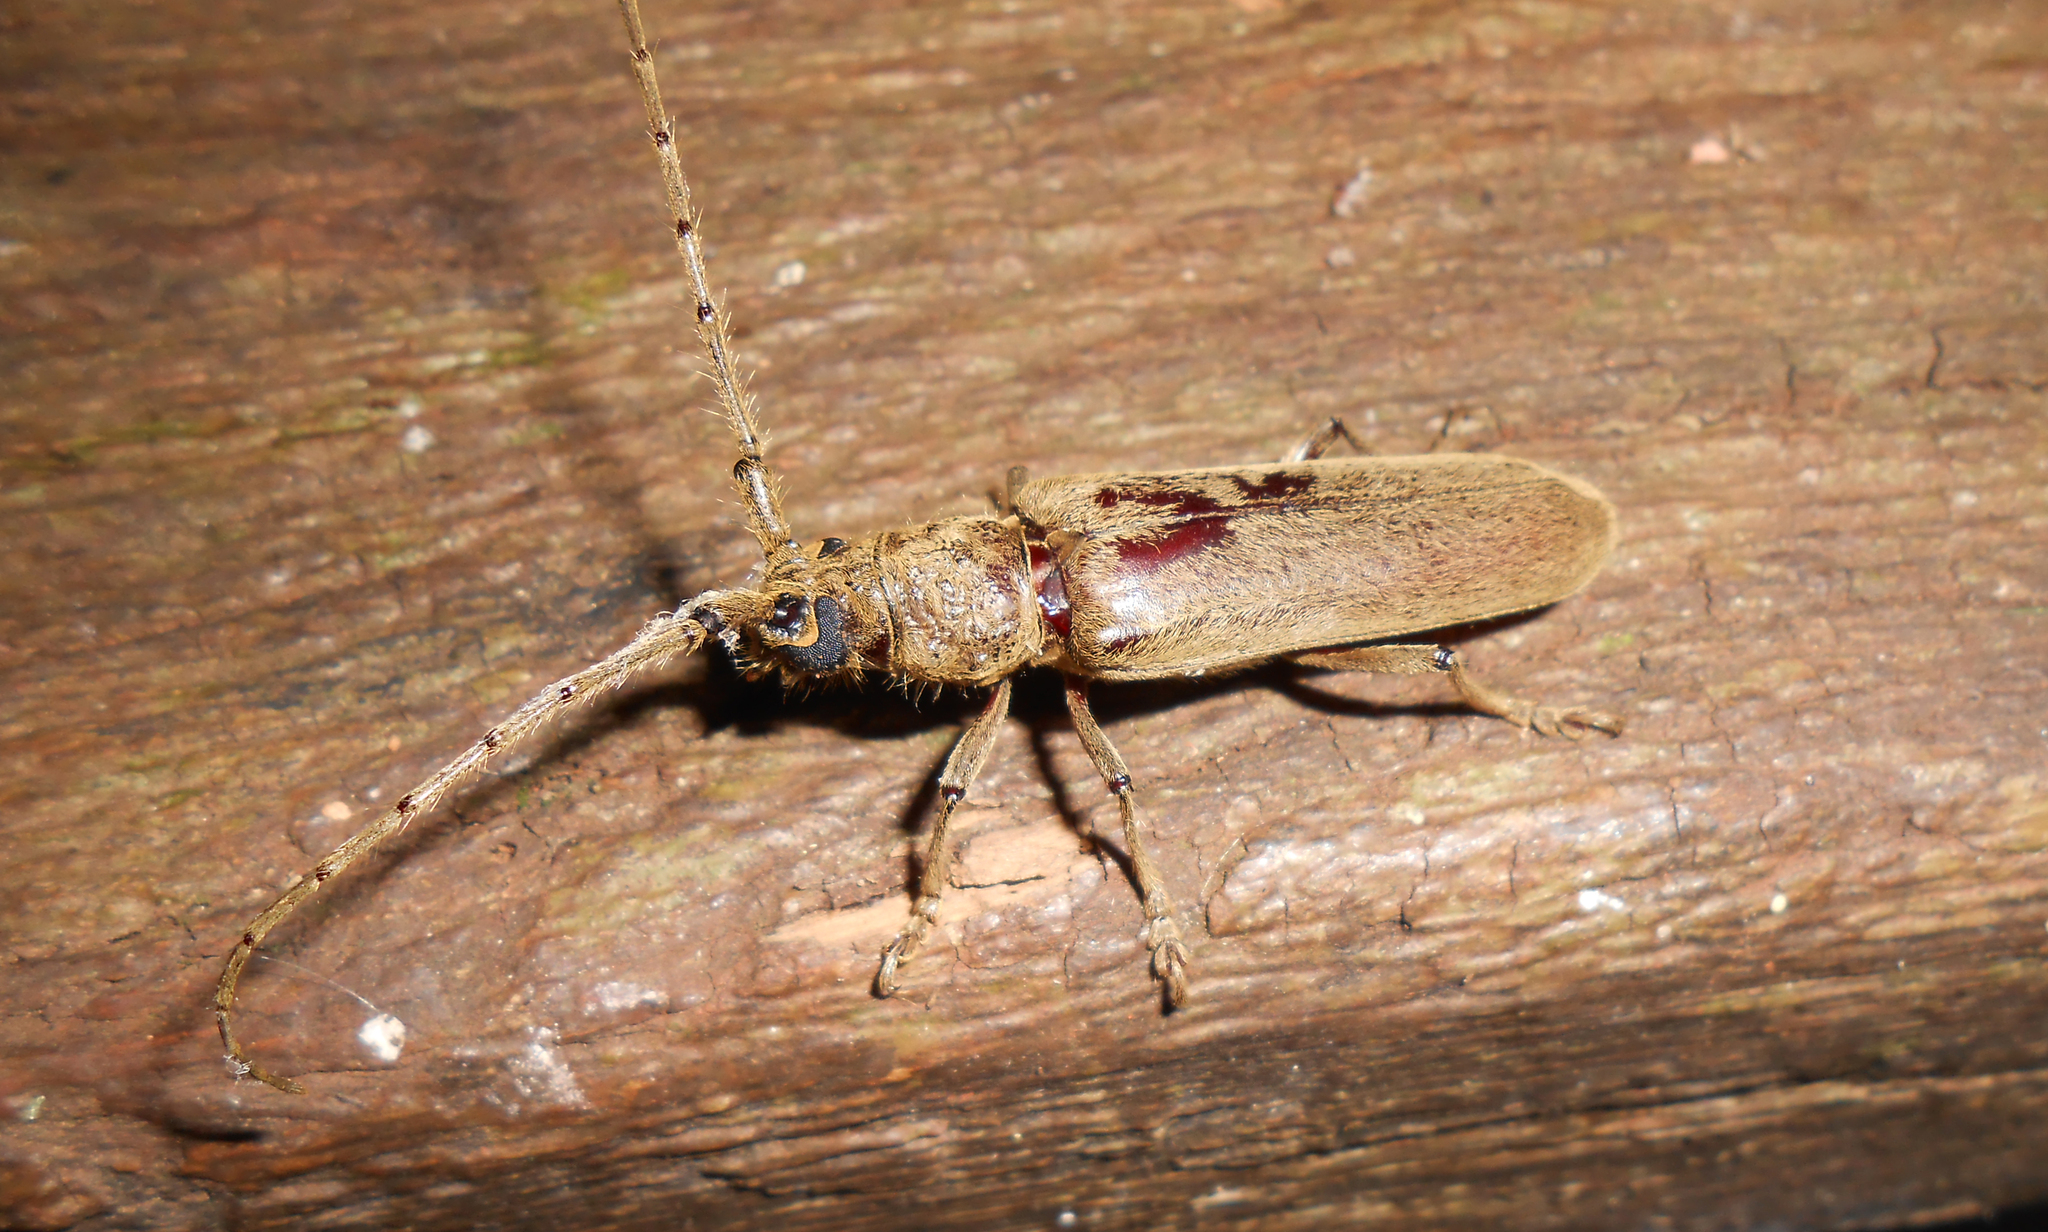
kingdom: Animalia
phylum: Arthropoda
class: Insecta
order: Coleoptera
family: Cerambycidae
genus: Criodion
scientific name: Criodion angustatum
